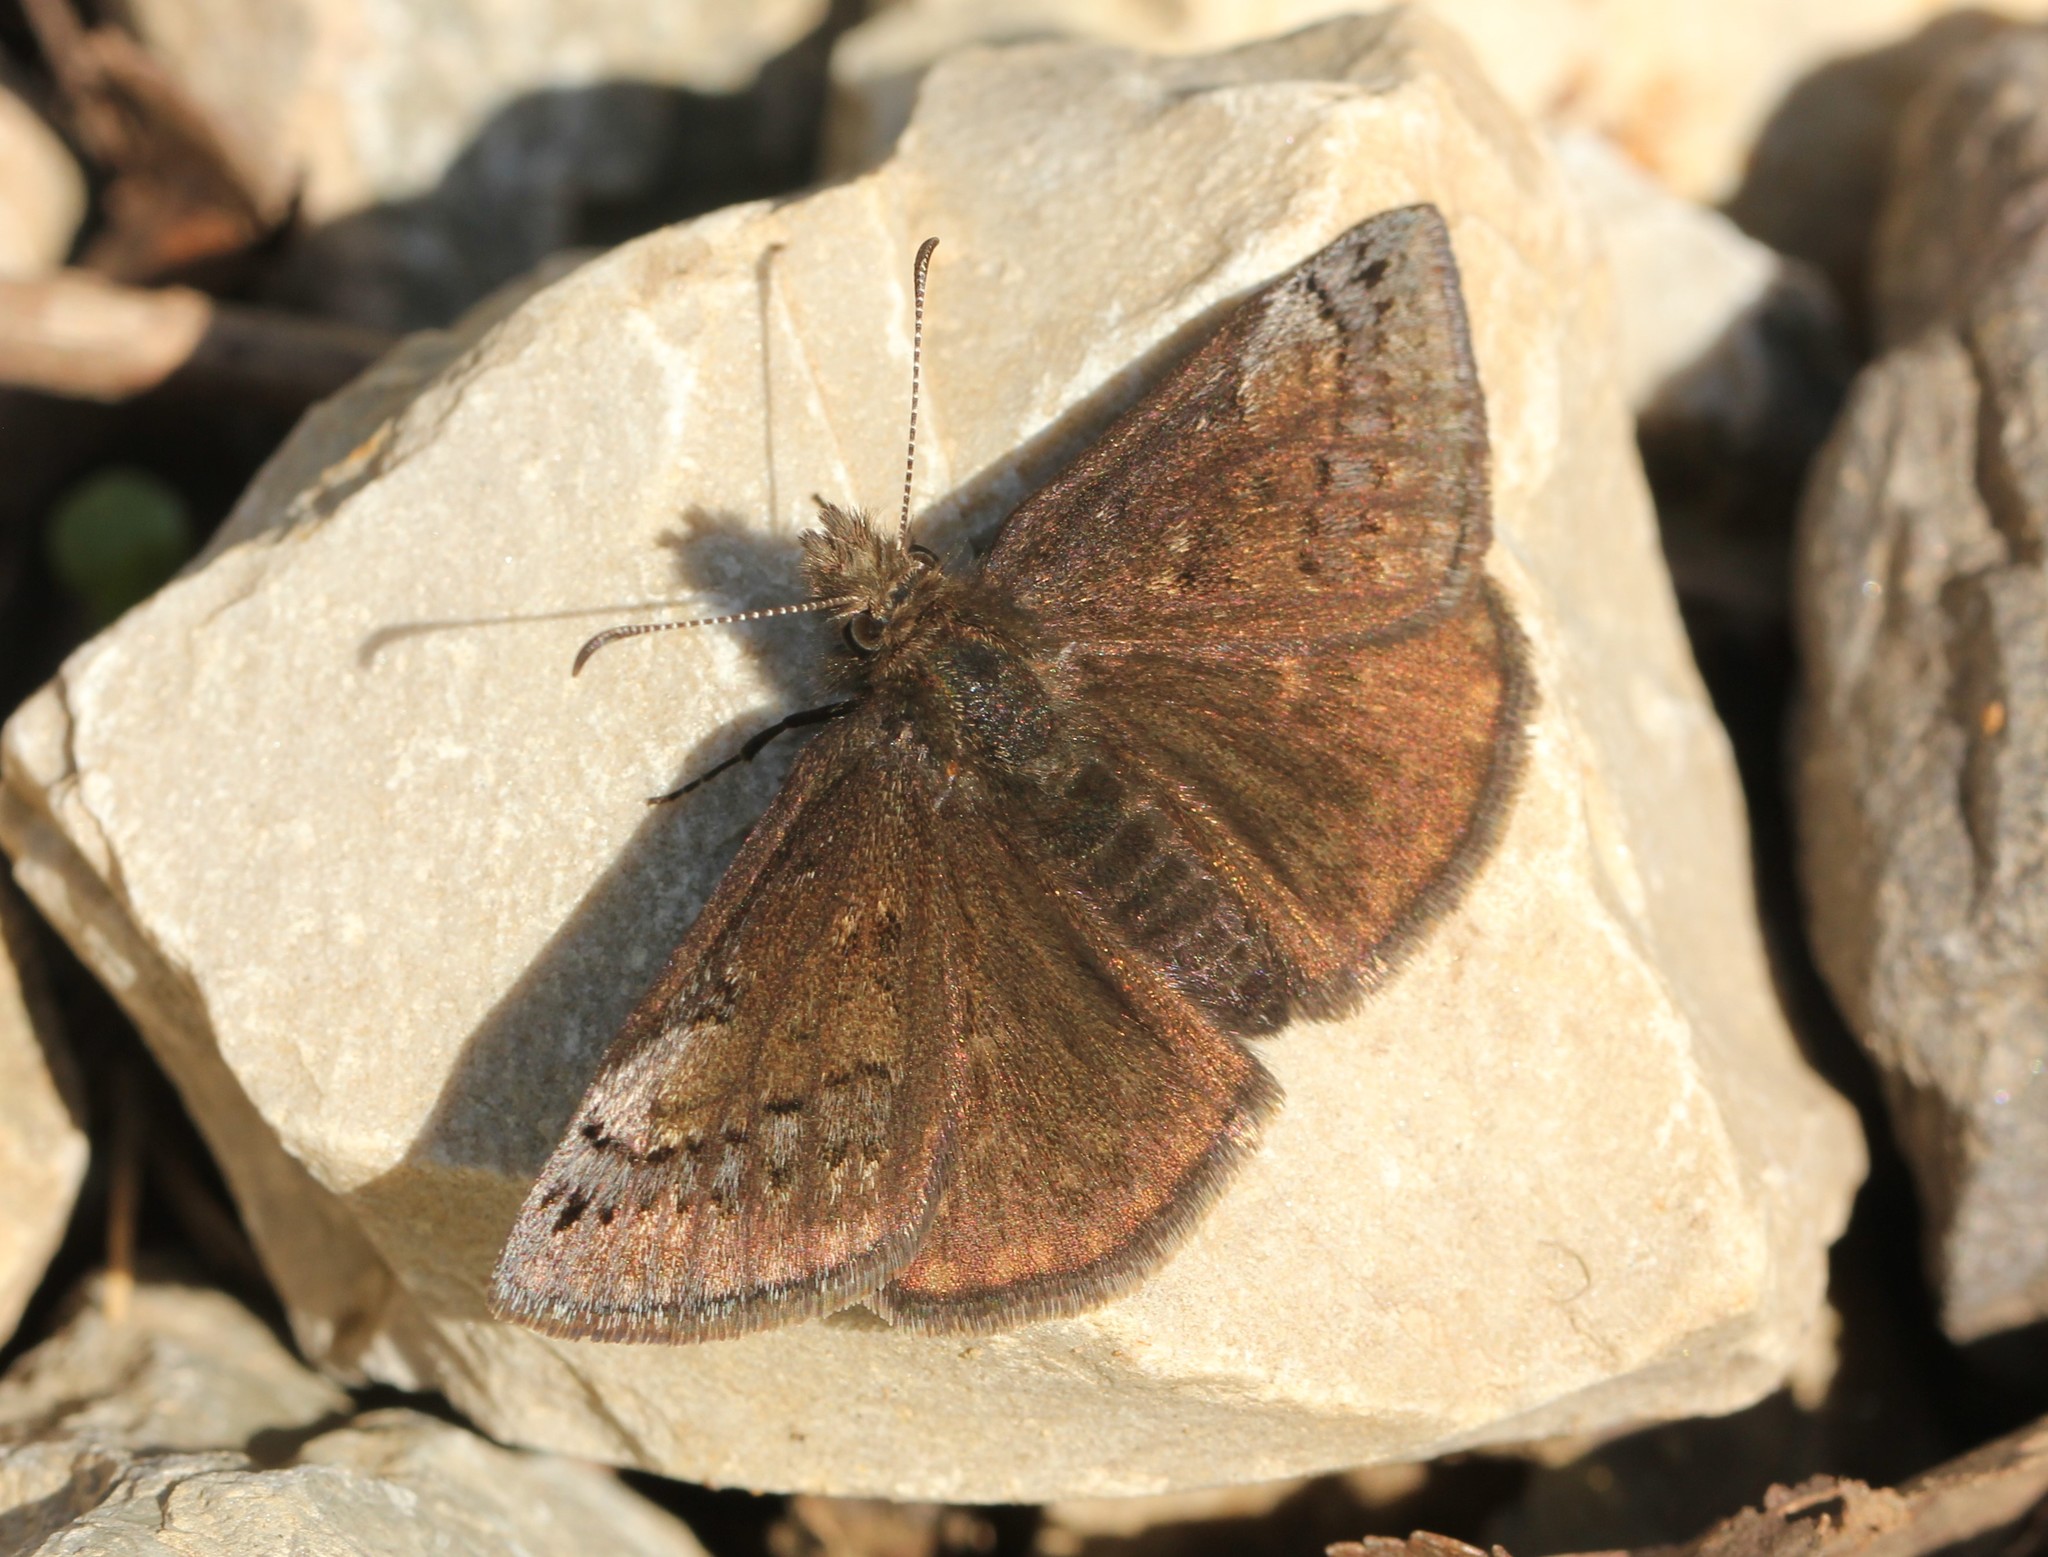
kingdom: Animalia
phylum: Arthropoda
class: Insecta
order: Lepidoptera
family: Hesperiidae
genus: Erynnis
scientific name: Erynnis brizo
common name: Sleepy duskywing
